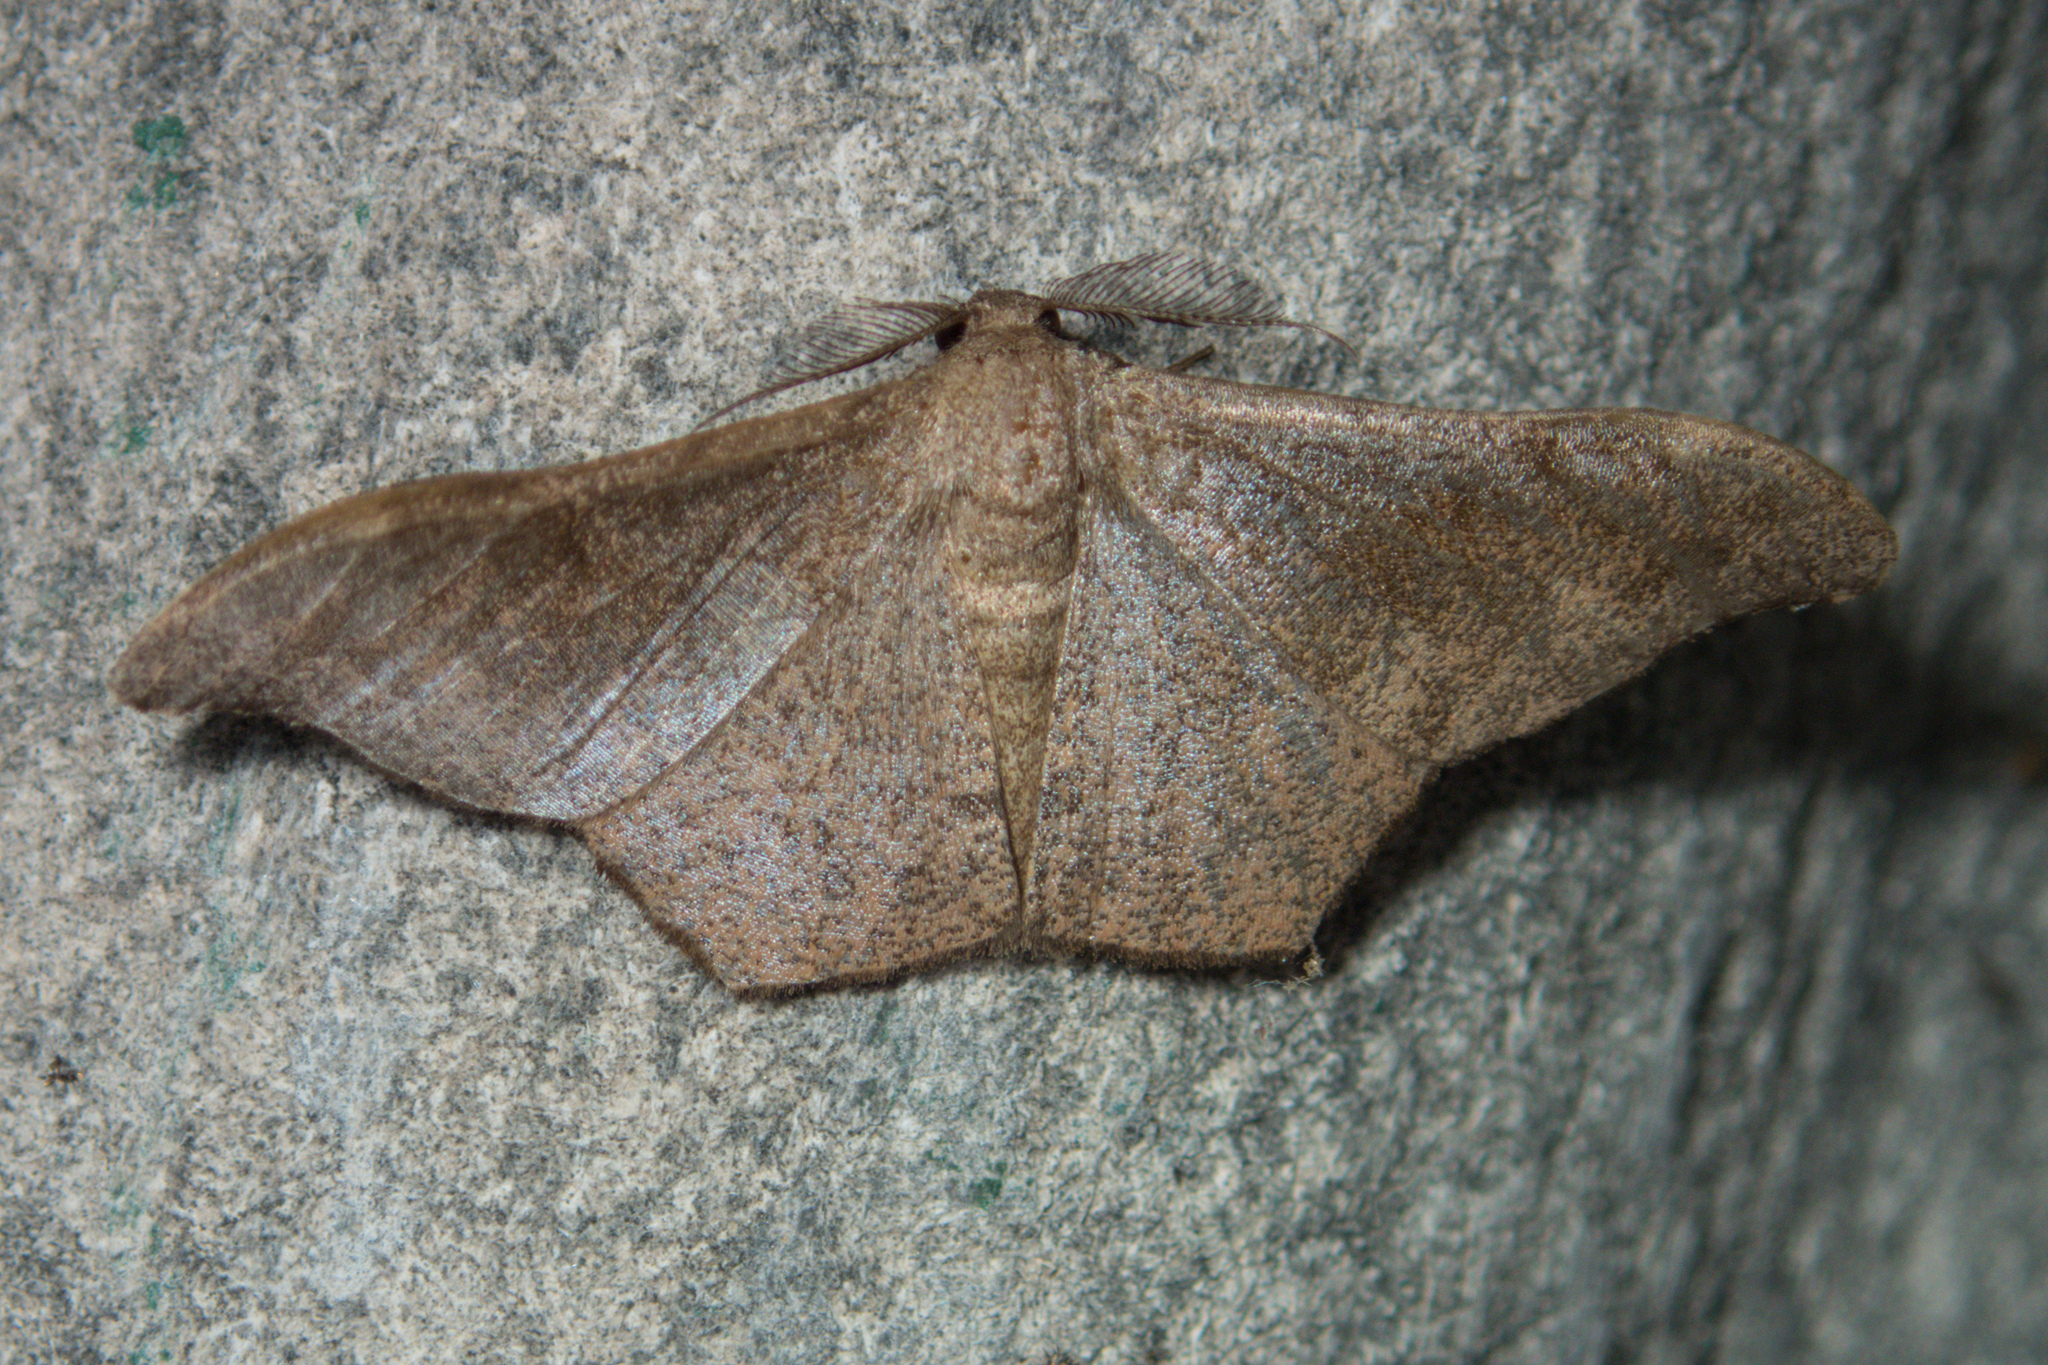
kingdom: Animalia
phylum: Arthropoda
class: Insecta
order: Lepidoptera
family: Geometridae
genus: Hyposidra
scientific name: Hyposidra talaca
